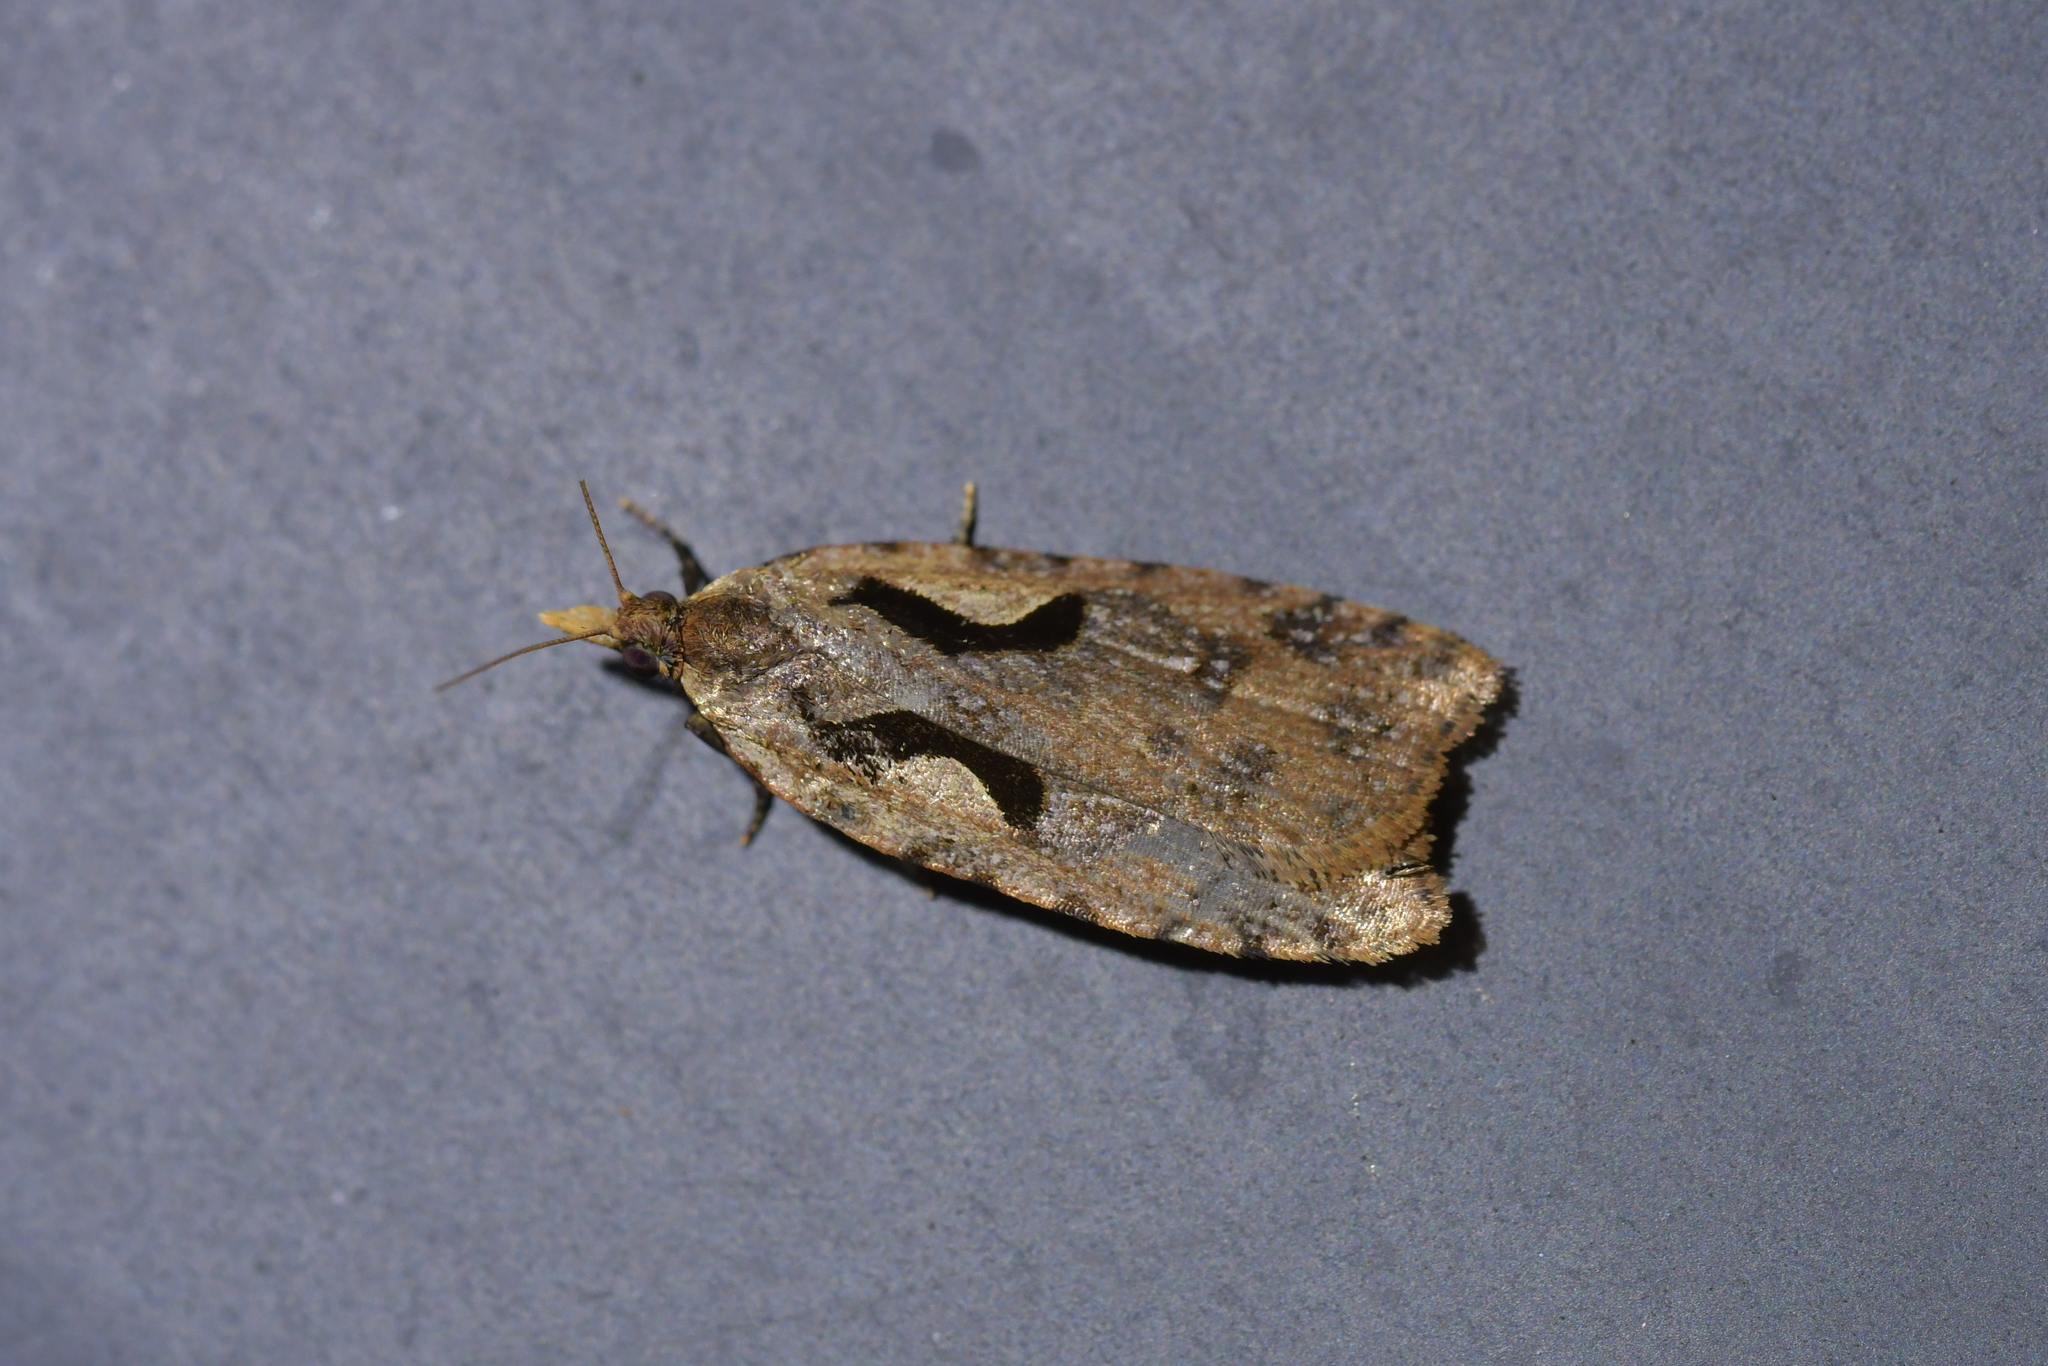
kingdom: Animalia
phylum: Arthropoda
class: Insecta
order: Lepidoptera
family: Tortricidae
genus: Cnephasia
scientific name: Cnephasia jactatana
